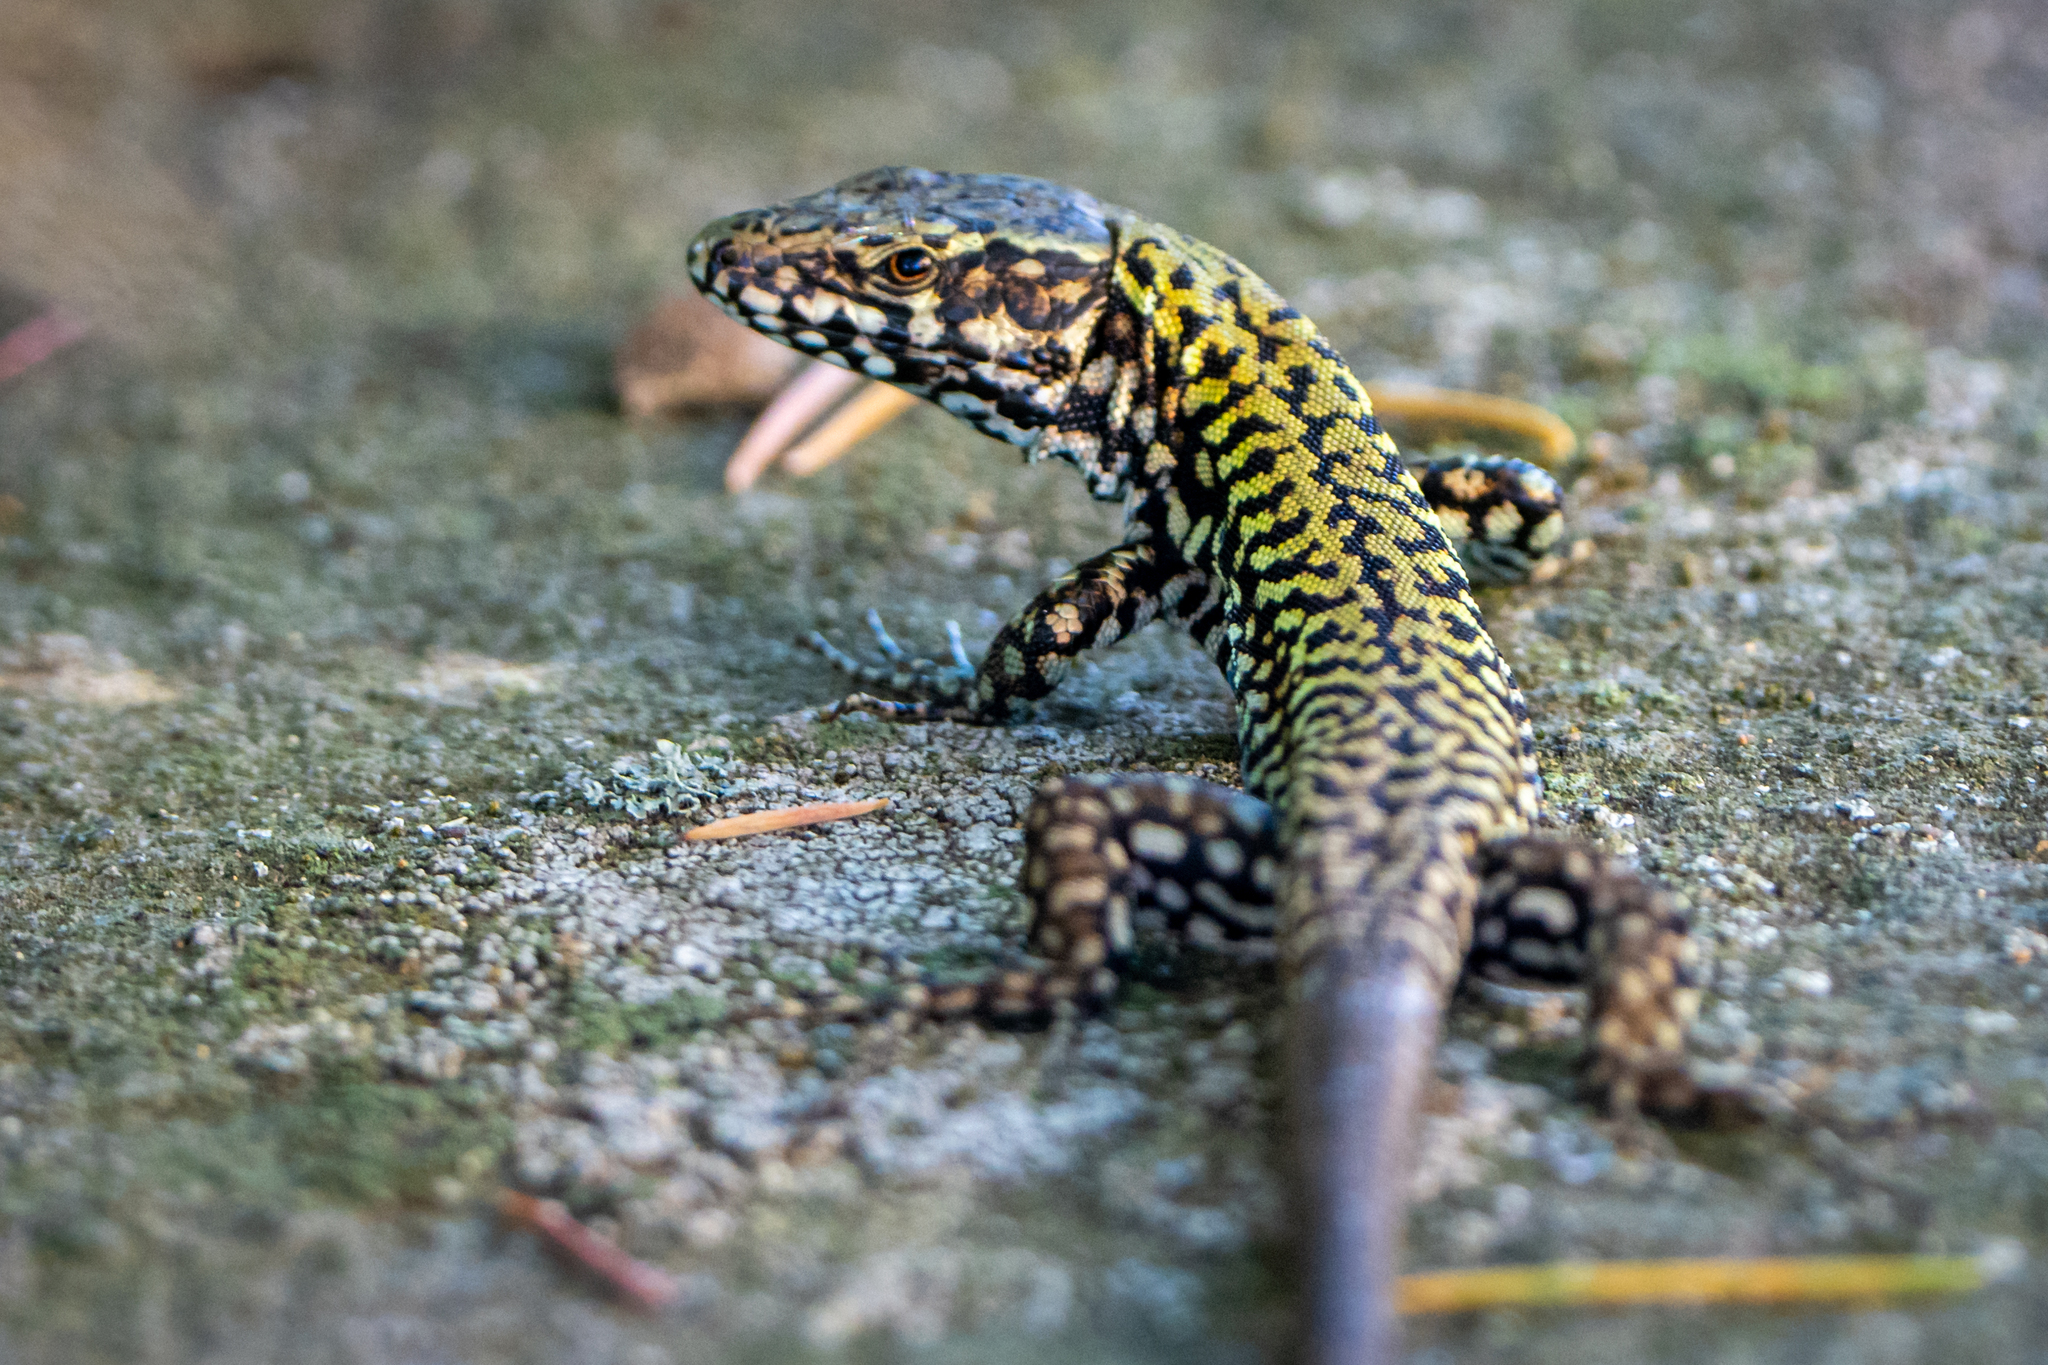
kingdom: Animalia
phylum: Chordata
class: Squamata
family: Lacertidae
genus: Podarcis
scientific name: Podarcis muralis
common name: Common wall lizard
